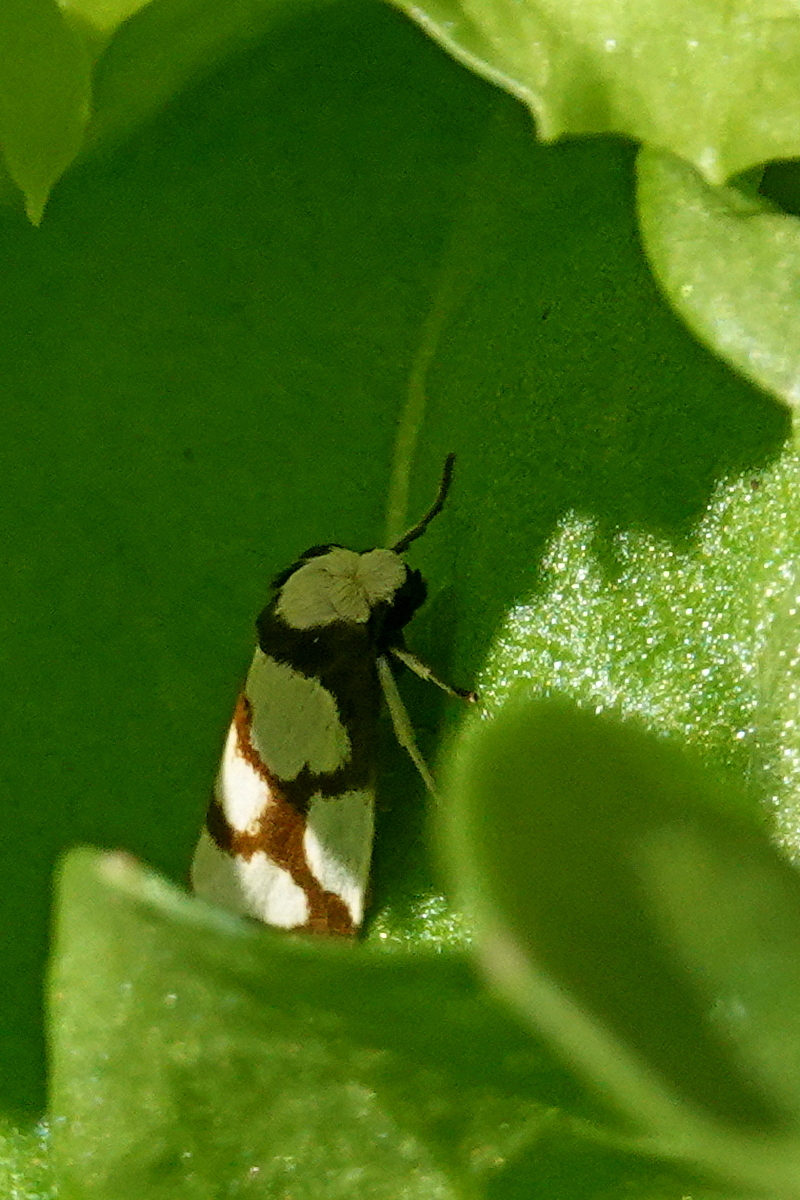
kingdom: Animalia
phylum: Arthropoda
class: Insecta
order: Lepidoptera
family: Erebidae
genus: Scaptesyle
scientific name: Scaptesyle dichotoma
